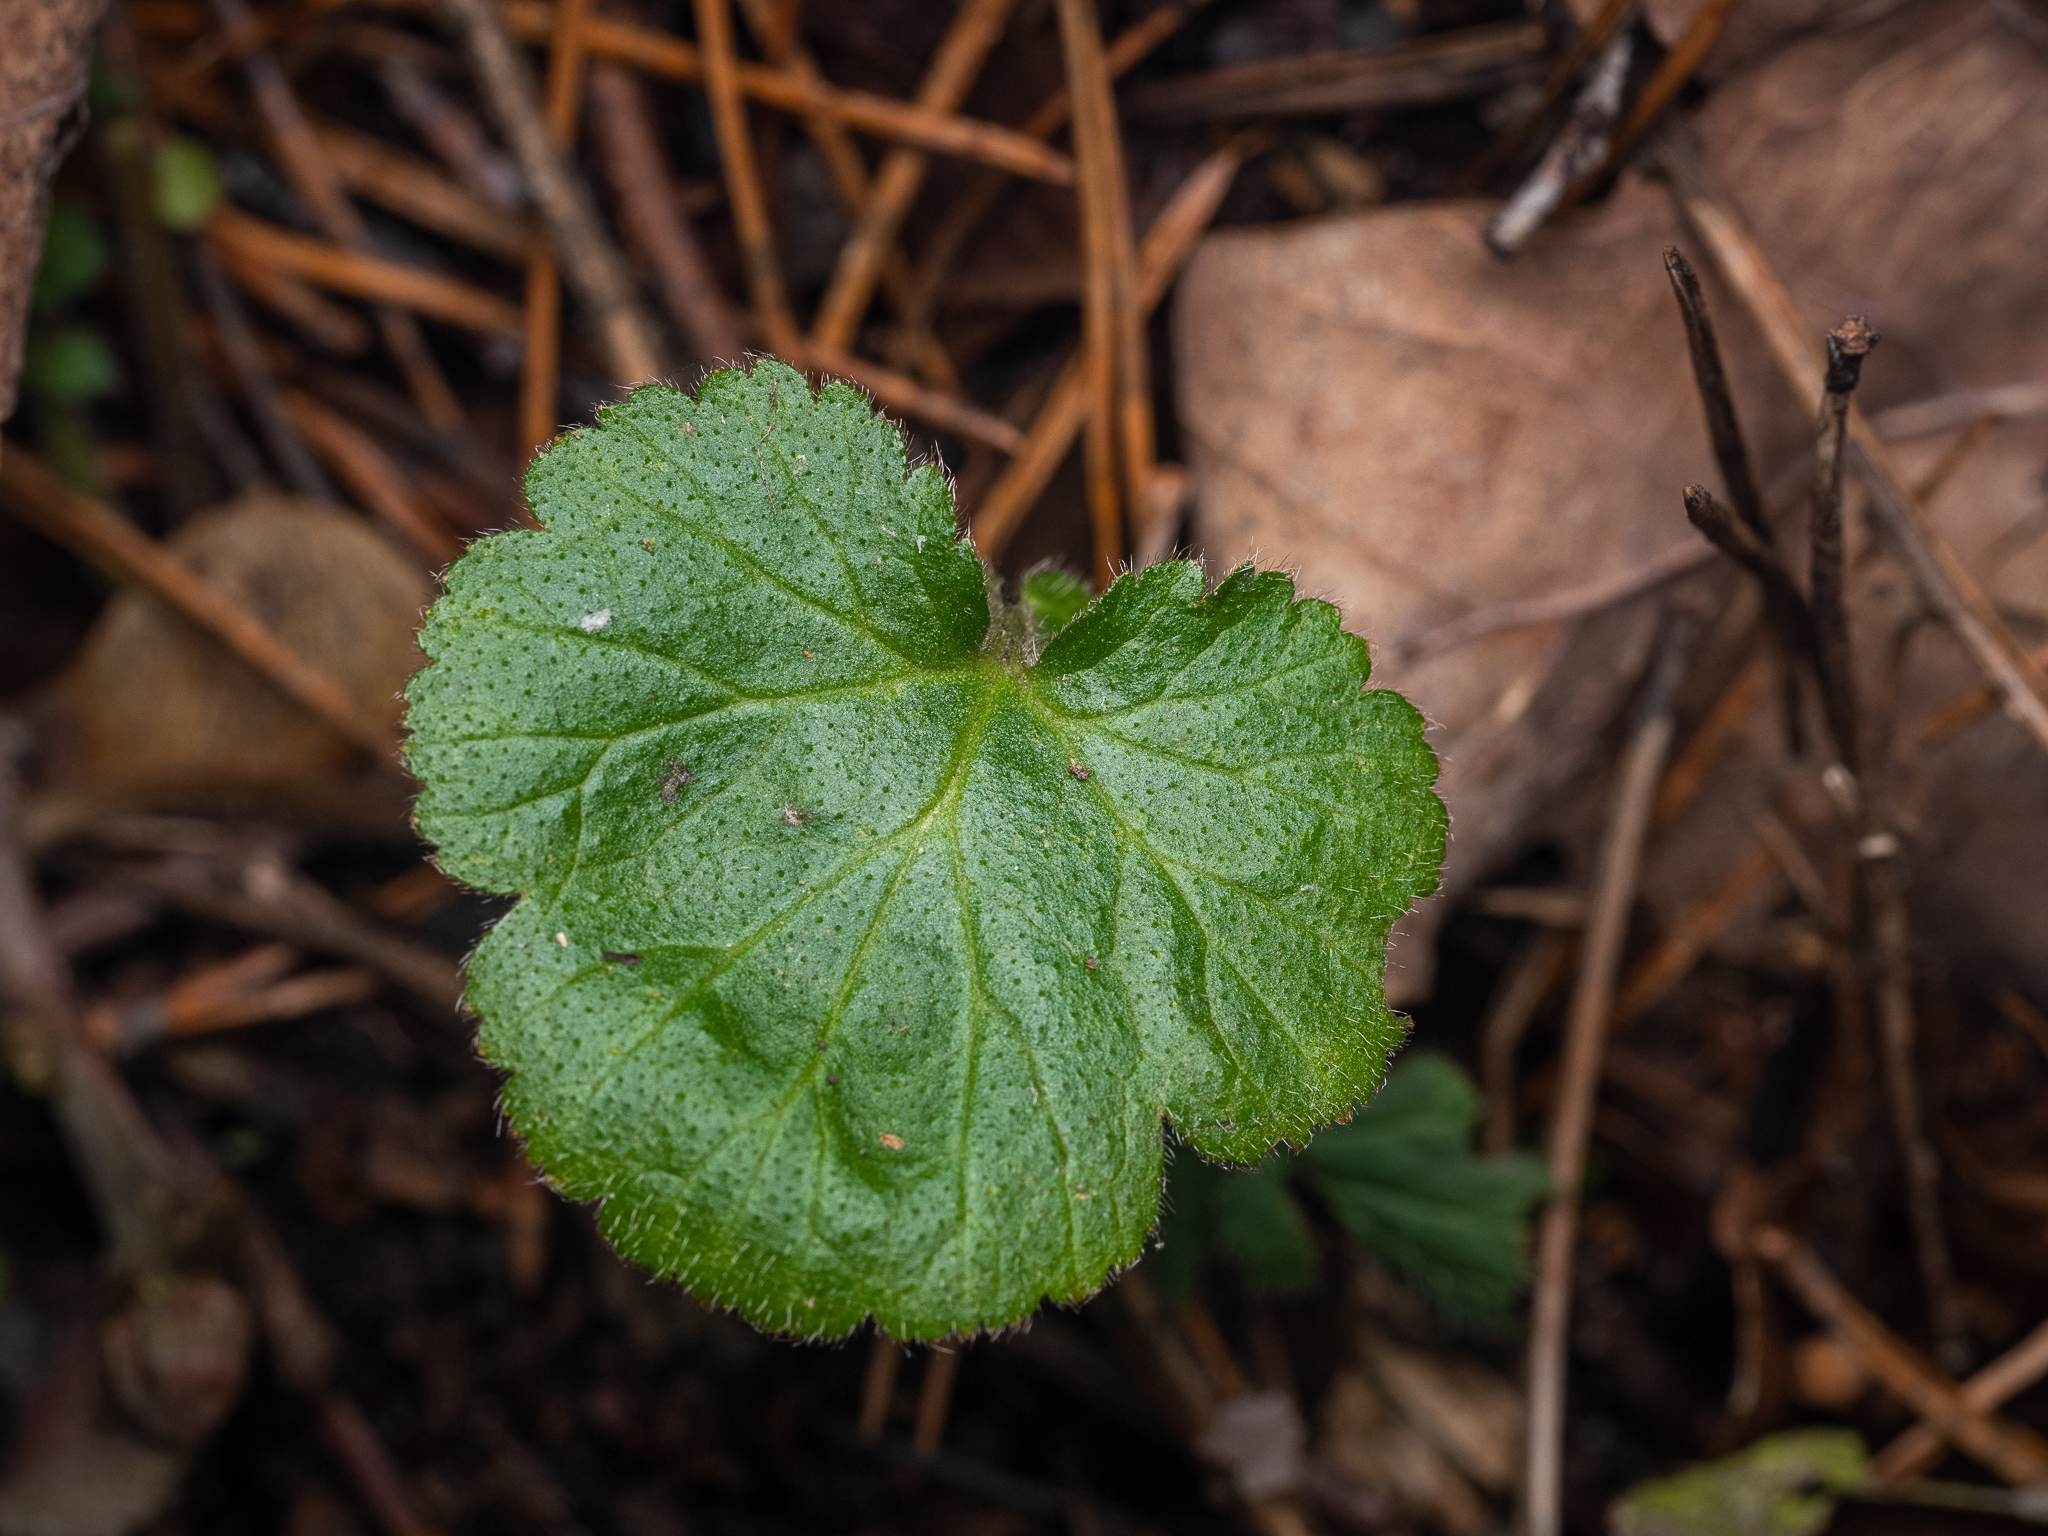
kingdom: Plantae
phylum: Tracheophyta
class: Magnoliopsida
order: Rosales
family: Rosaceae
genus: Geum
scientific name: Geum urbanum
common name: Wood avens
